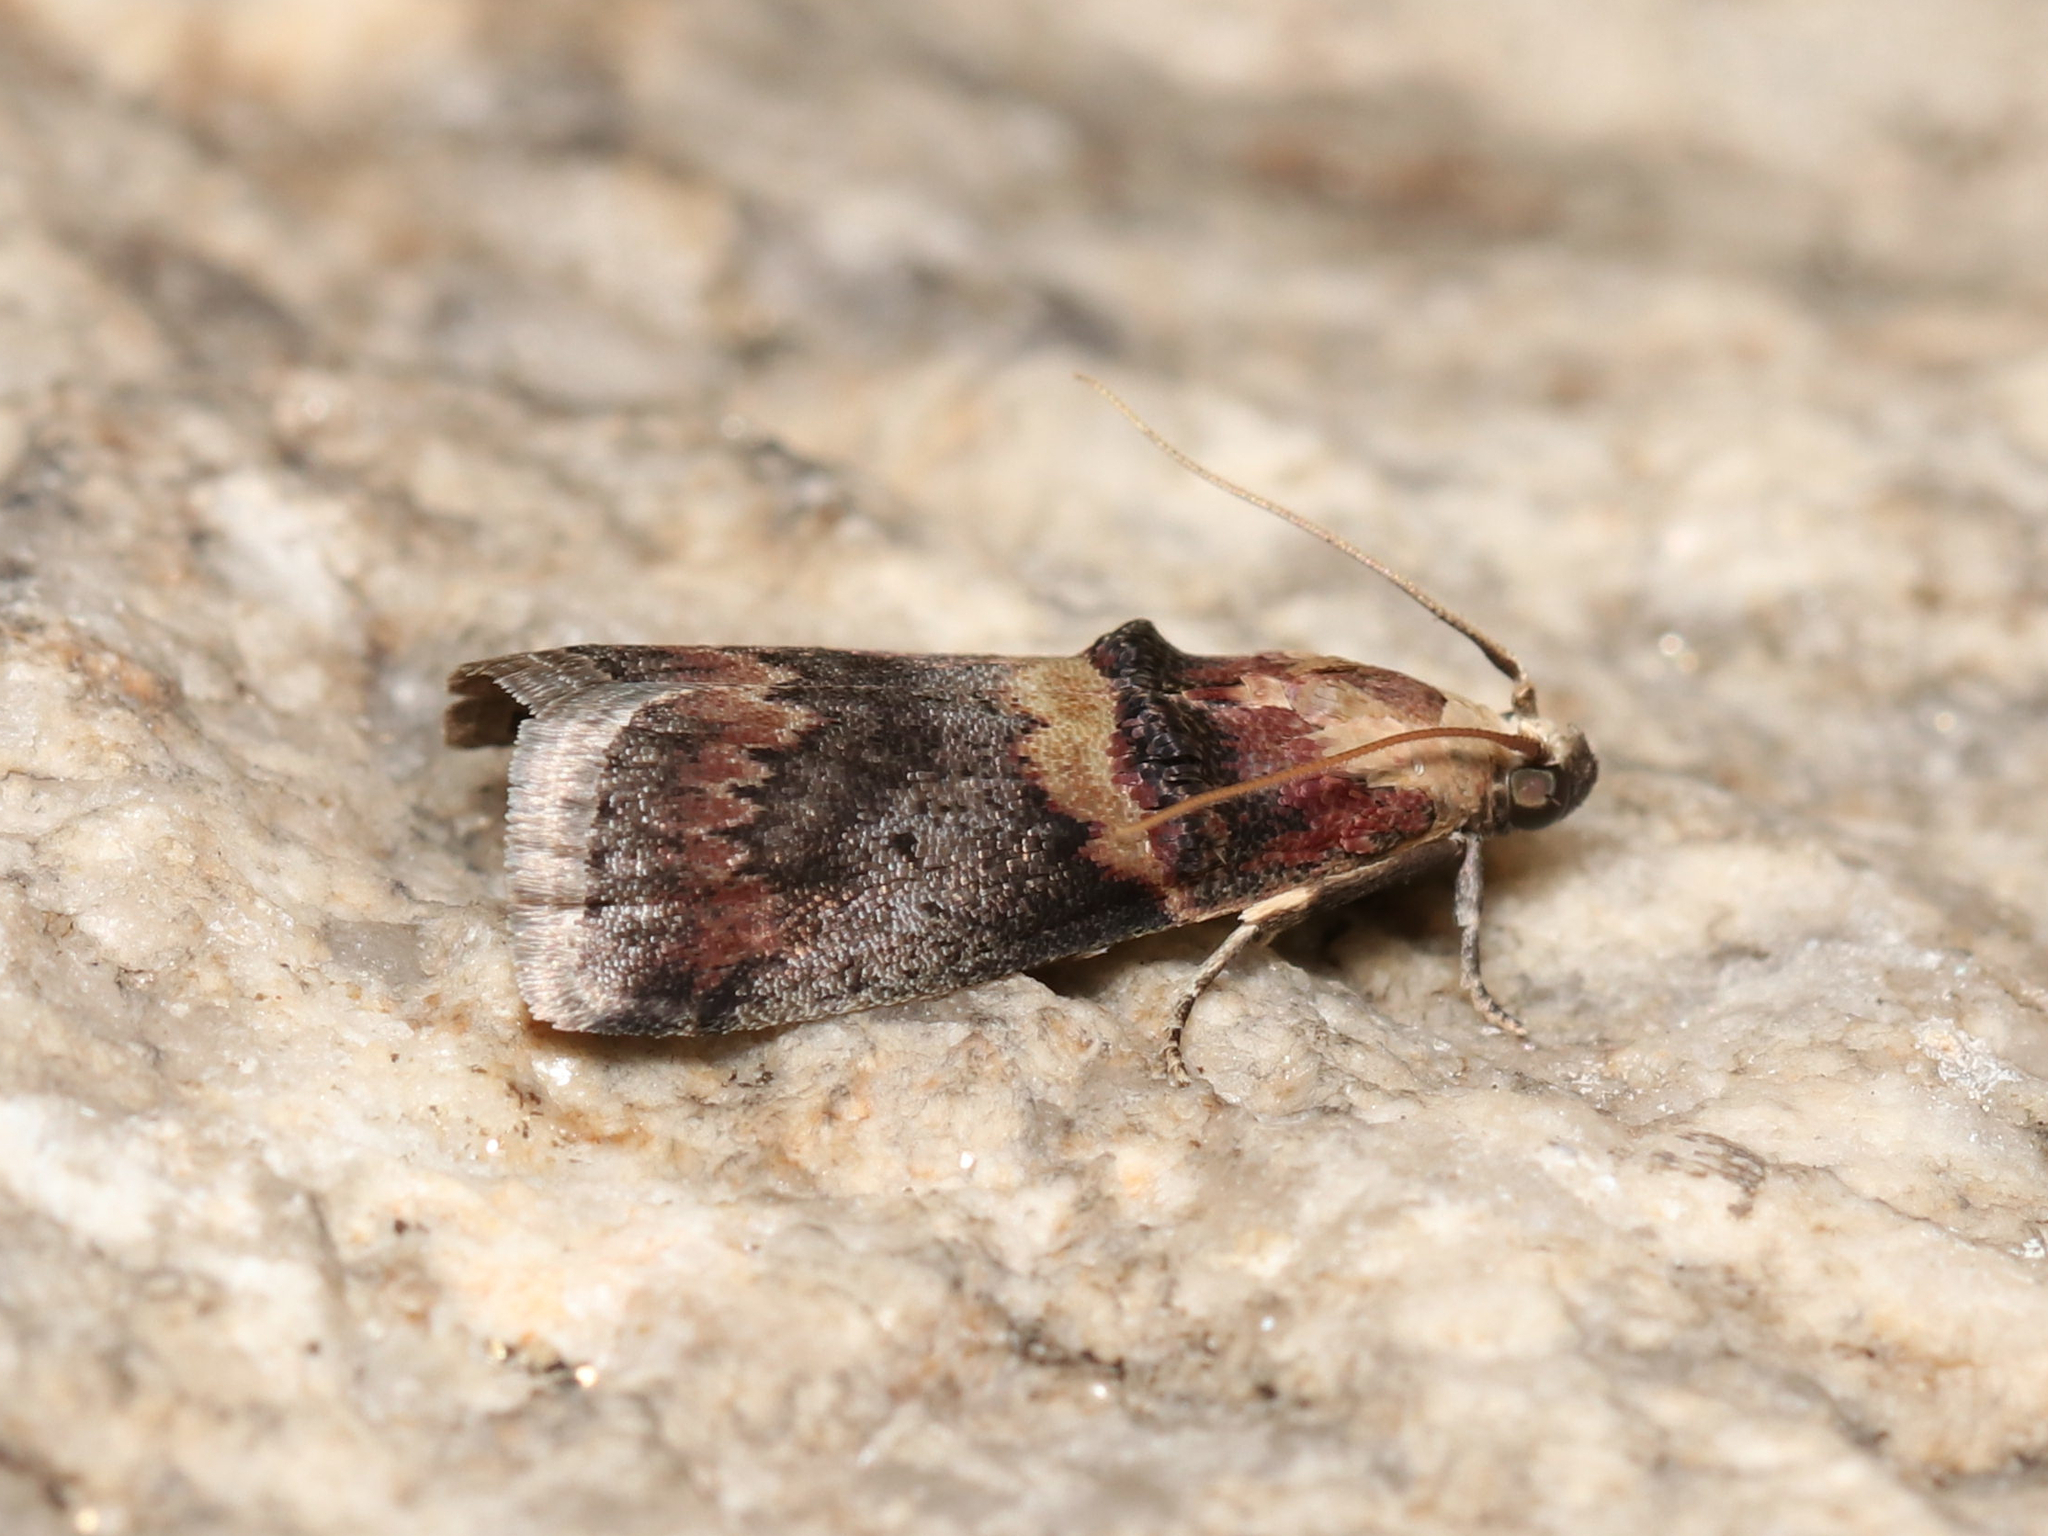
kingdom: Animalia
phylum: Arthropoda
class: Insecta
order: Lepidoptera
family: Pyralidae
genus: Acrobasis
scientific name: Acrobasis angusella
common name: Hickory leafstem borer moth
